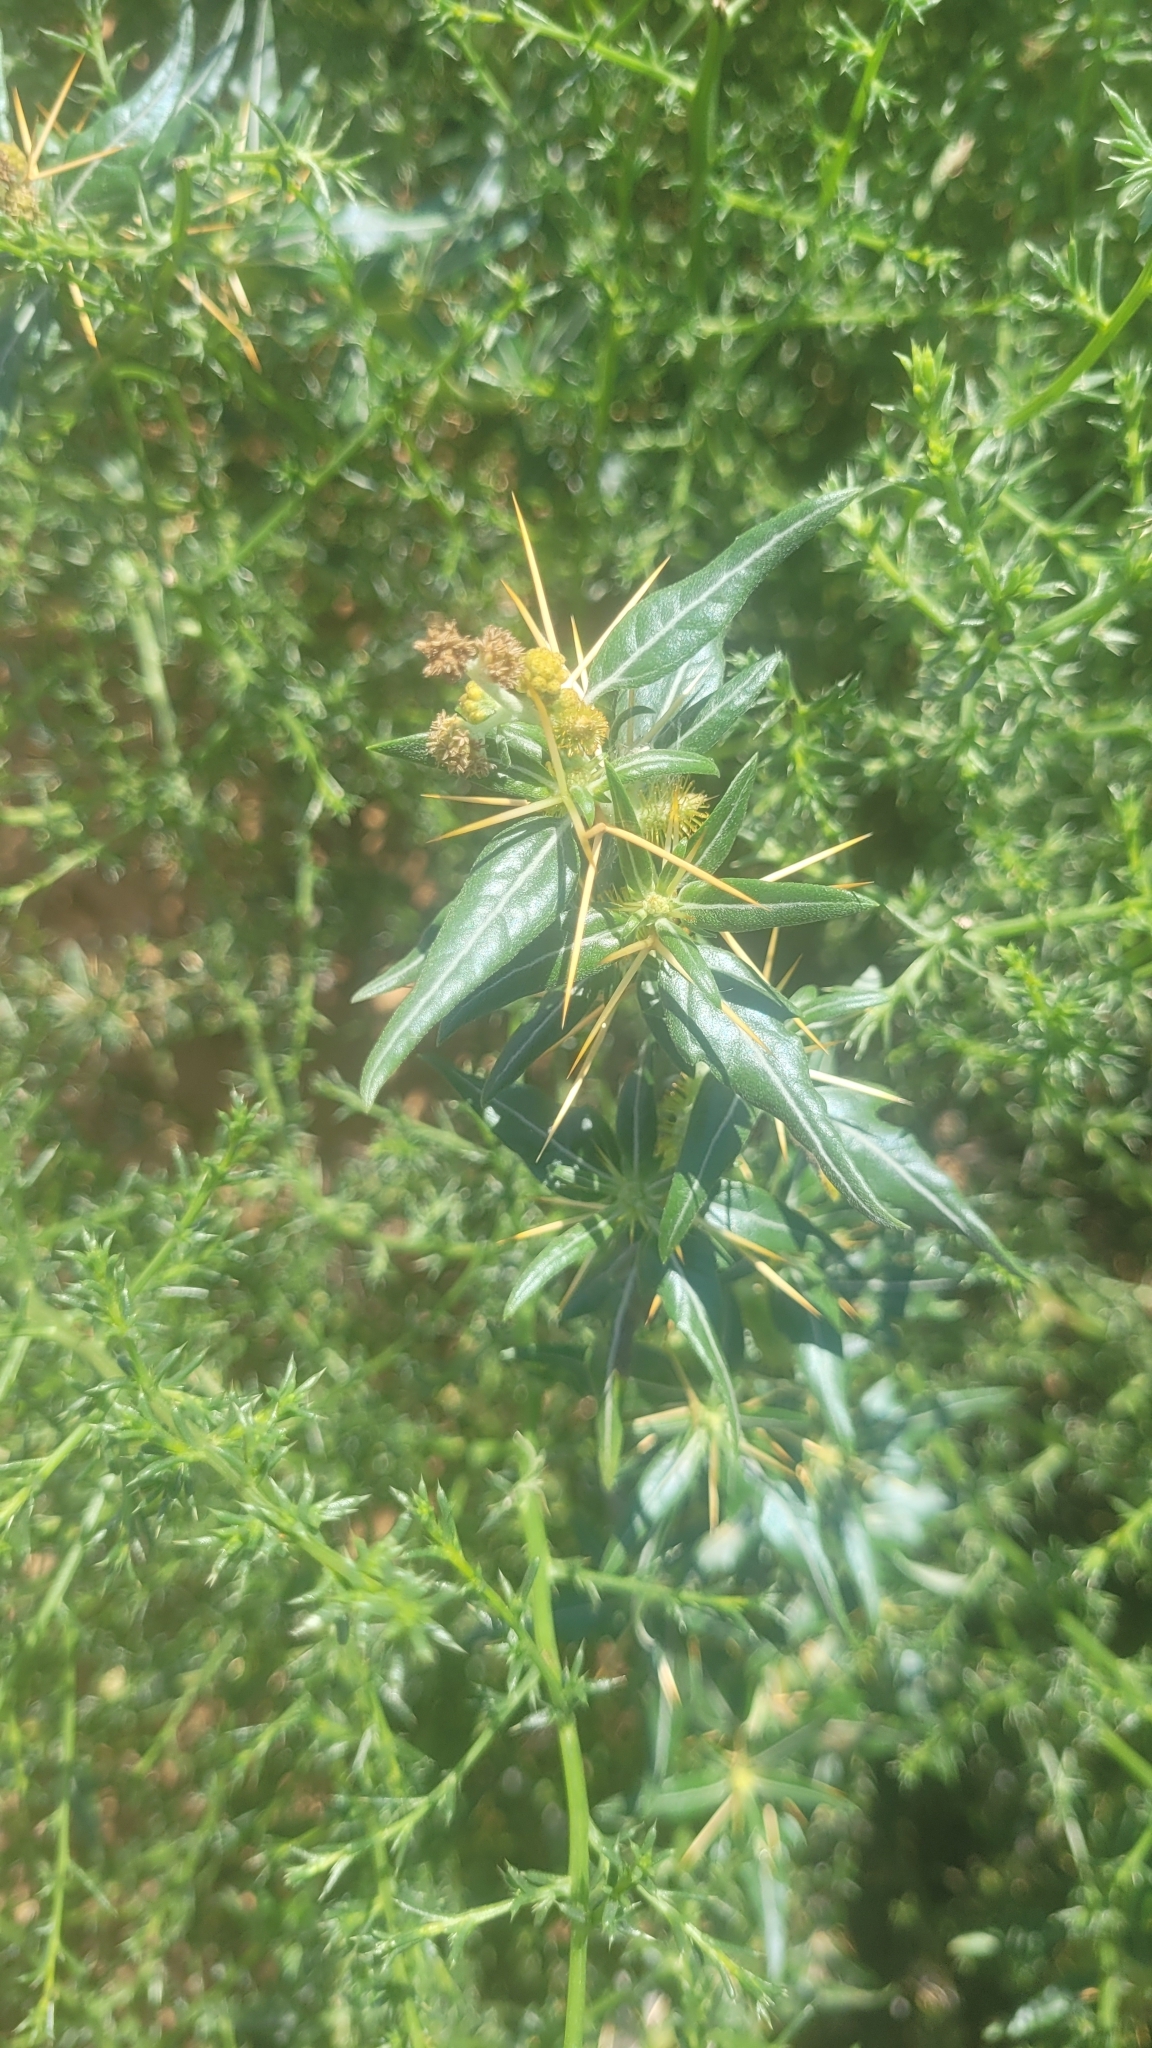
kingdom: Plantae
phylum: Tracheophyta
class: Magnoliopsida
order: Asterales
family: Asteraceae
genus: Xanthium
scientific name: Xanthium spinosum
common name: Spiny cocklebur
